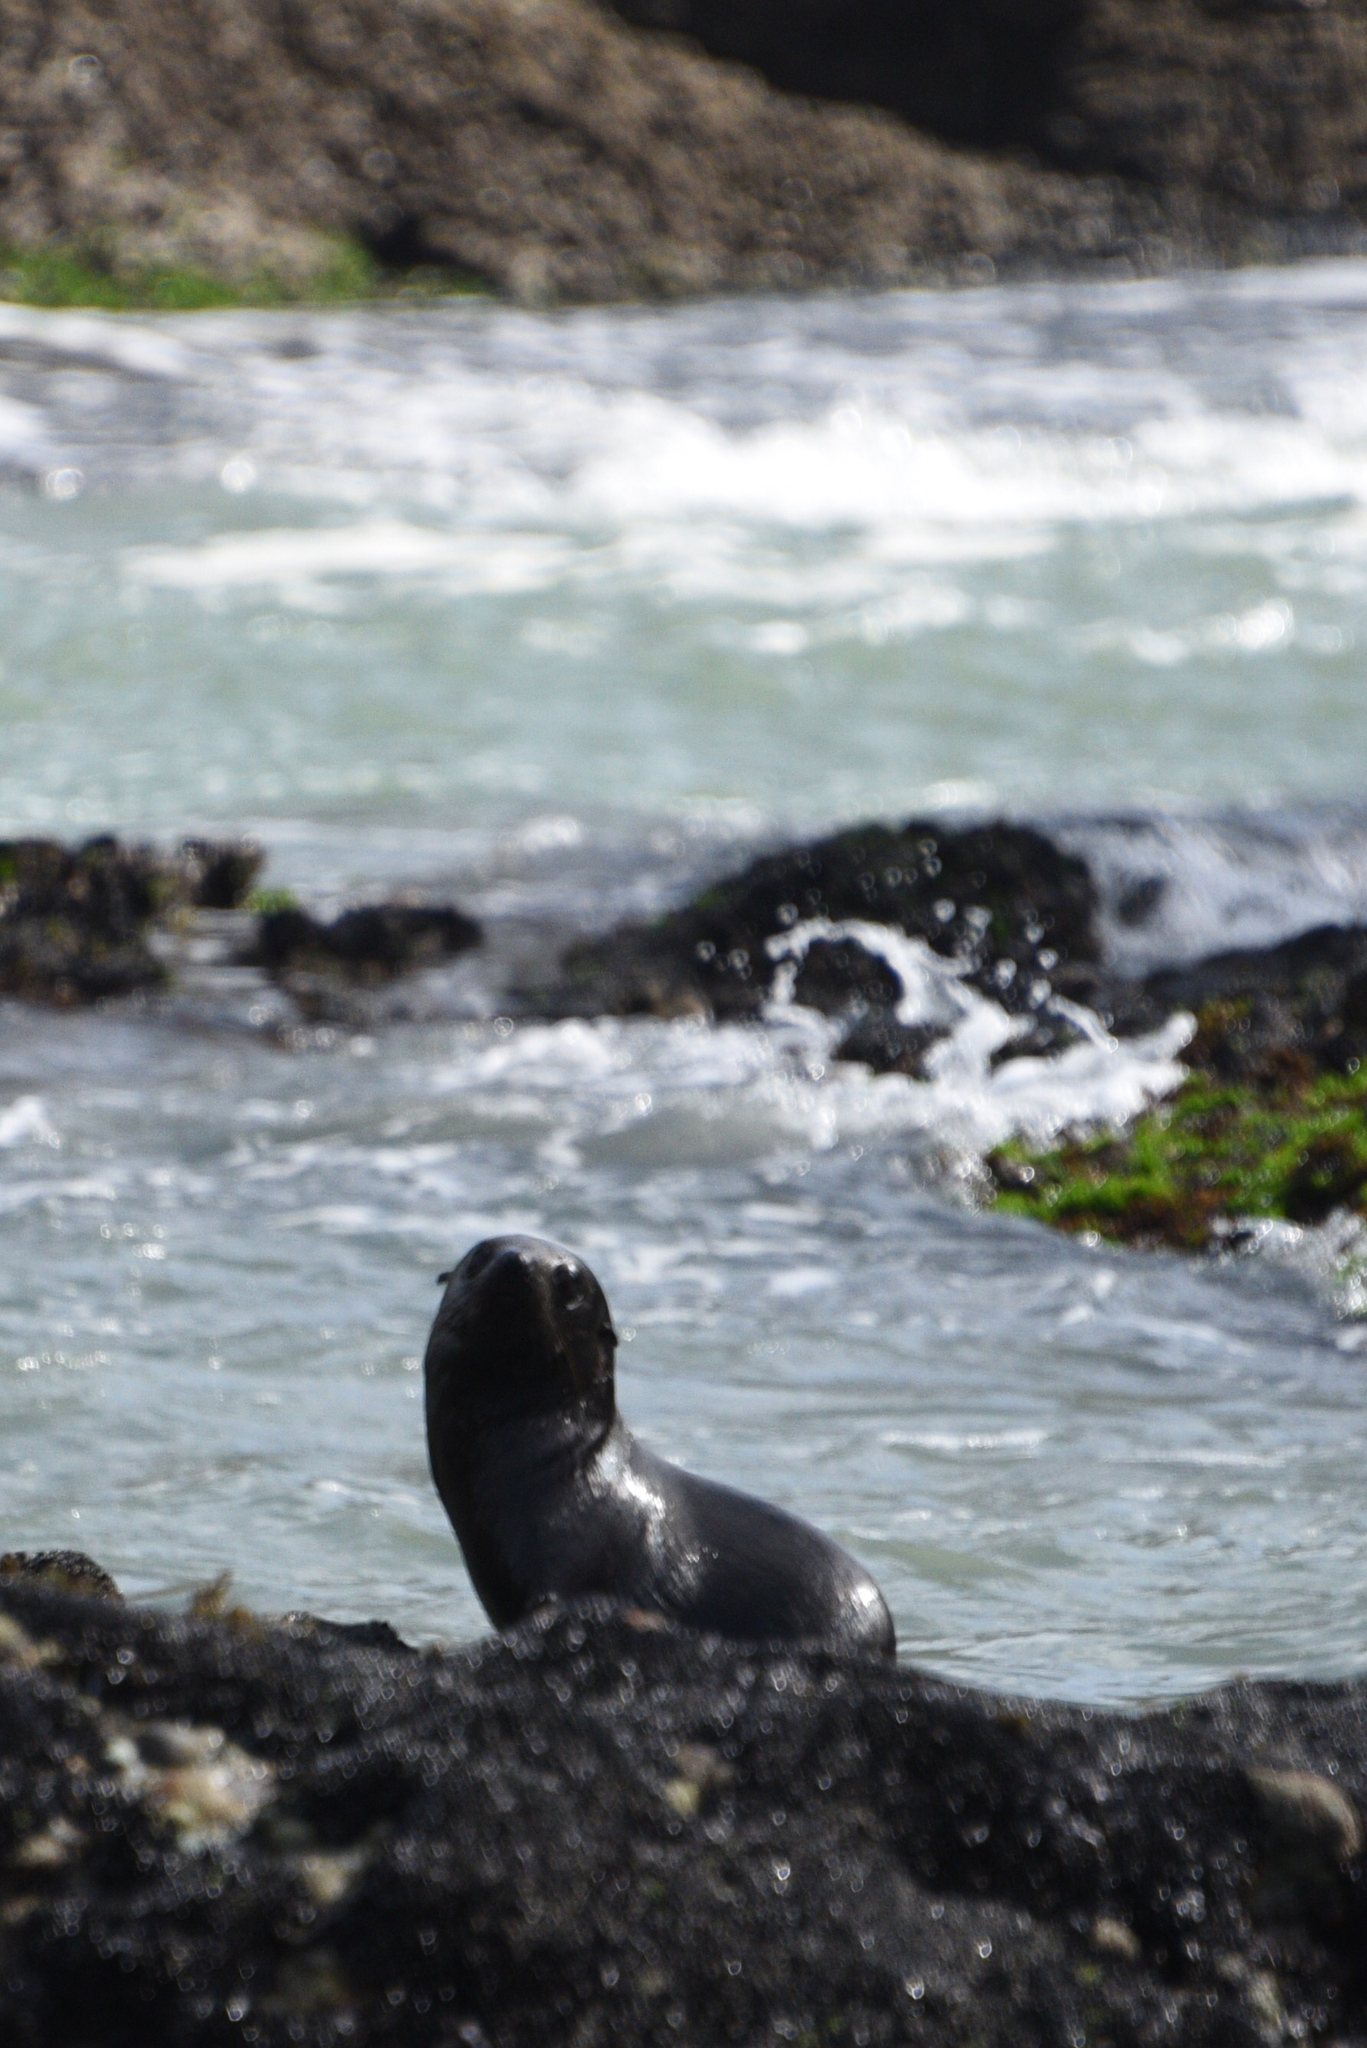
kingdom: Animalia
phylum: Chordata
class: Mammalia
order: Carnivora
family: Otariidae
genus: Arctocephalus
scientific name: Arctocephalus forsteri
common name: New zealand fur seal
